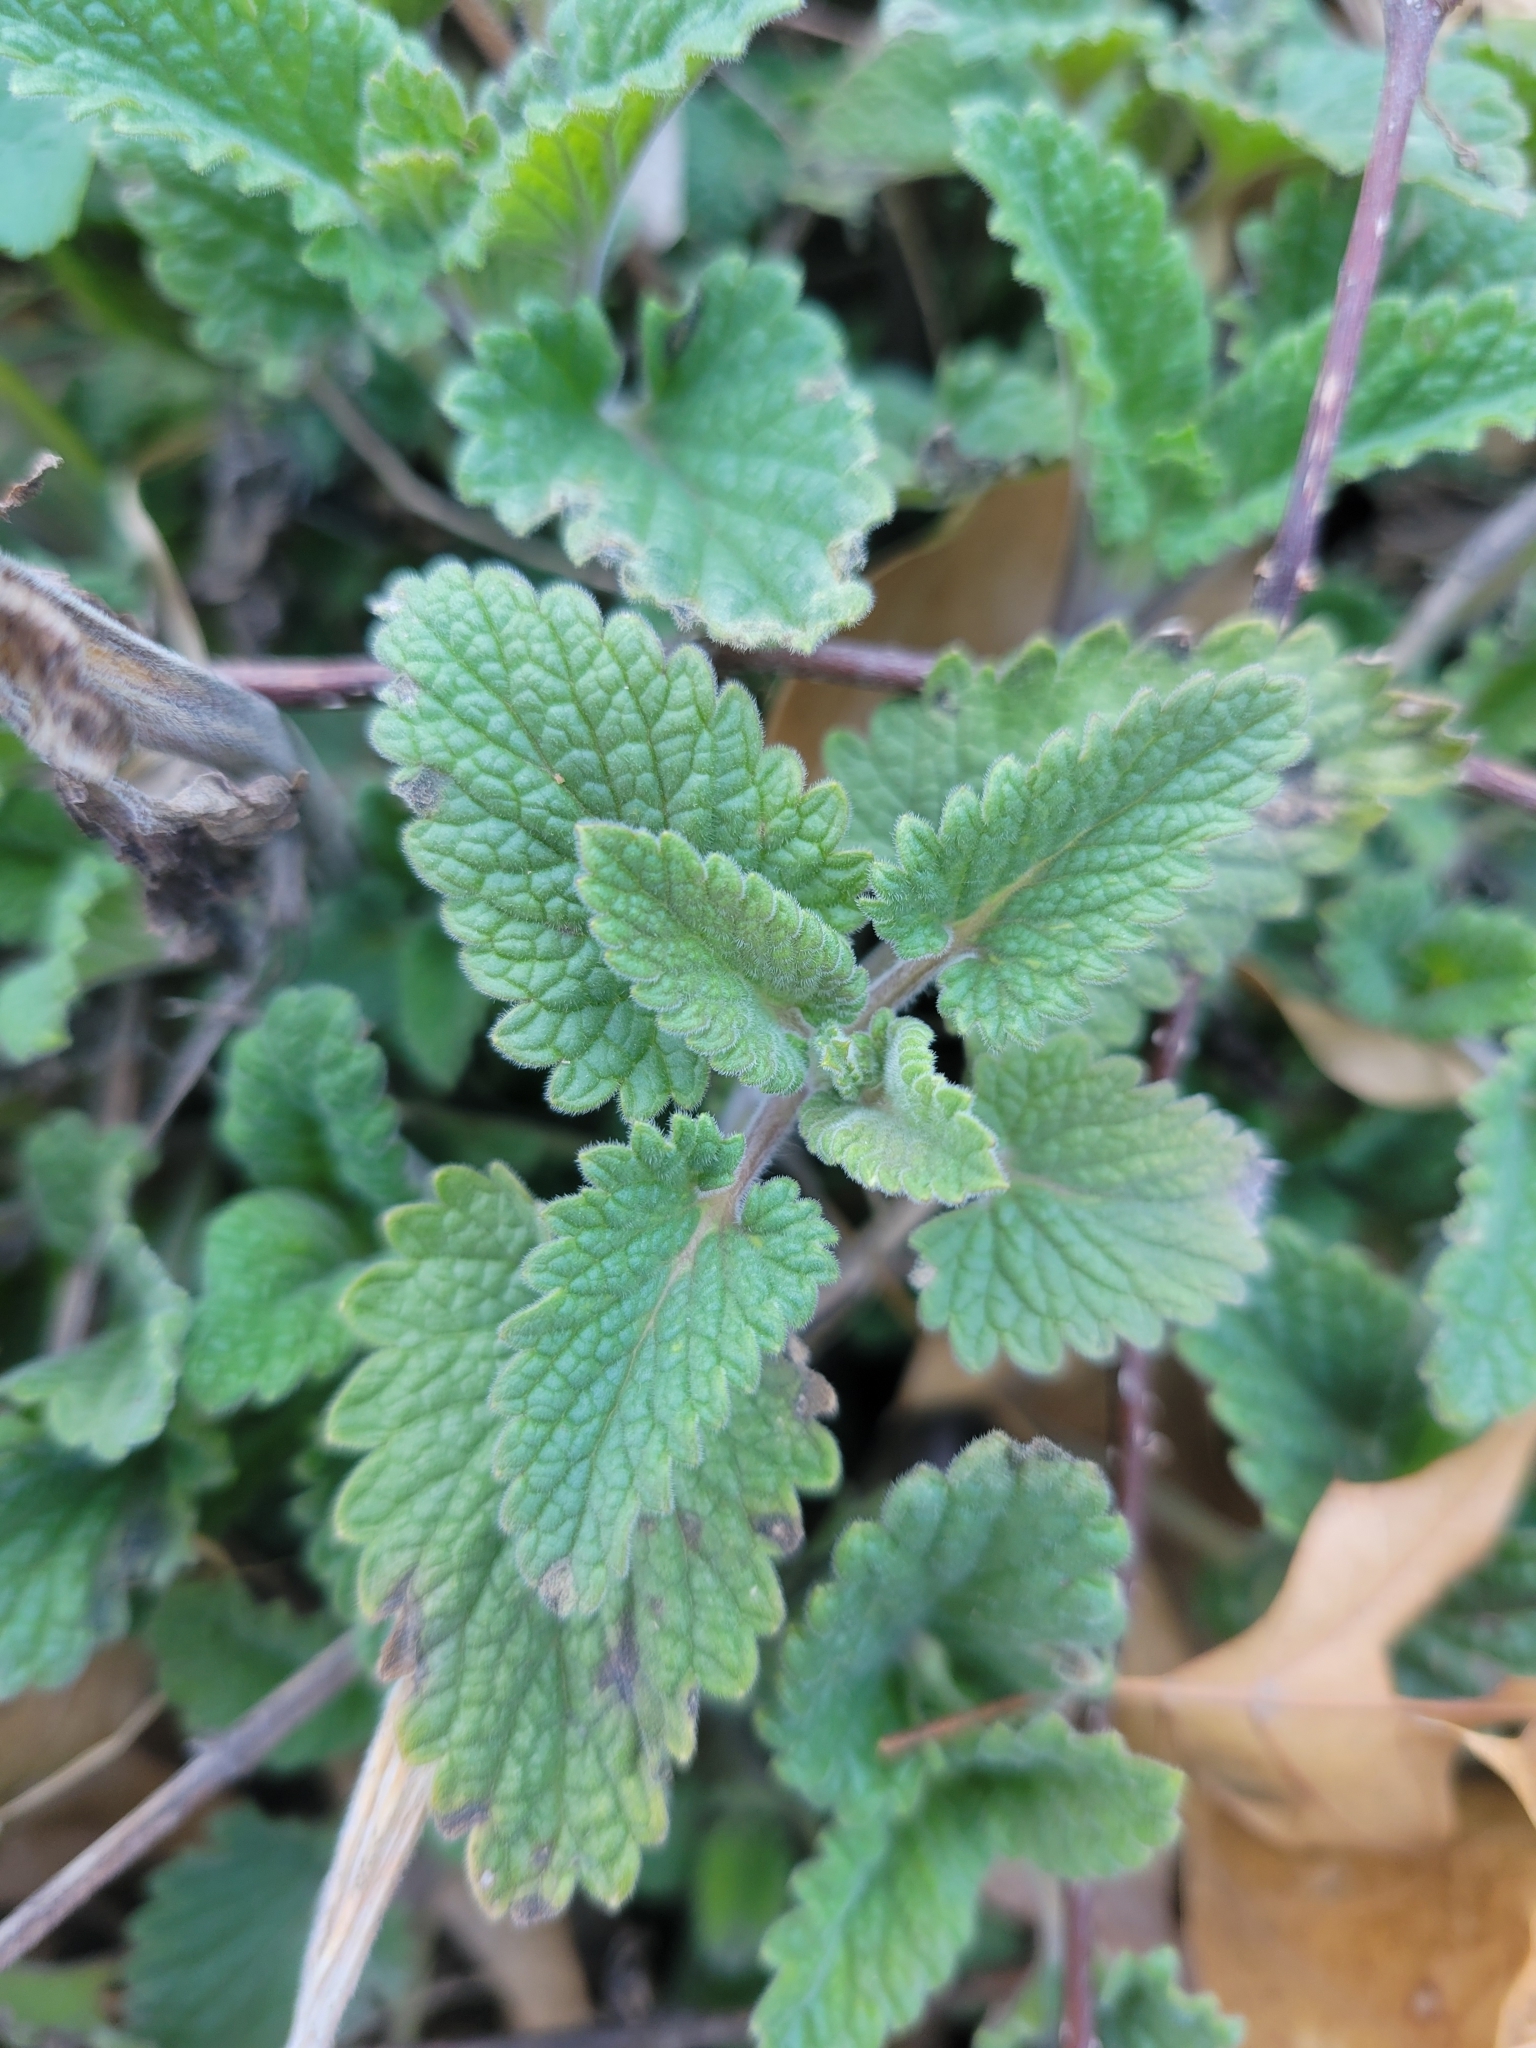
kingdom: Plantae
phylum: Tracheophyta
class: Magnoliopsida
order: Lamiales
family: Lamiaceae
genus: Nepeta
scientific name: Nepeta cataria
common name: Catnip
